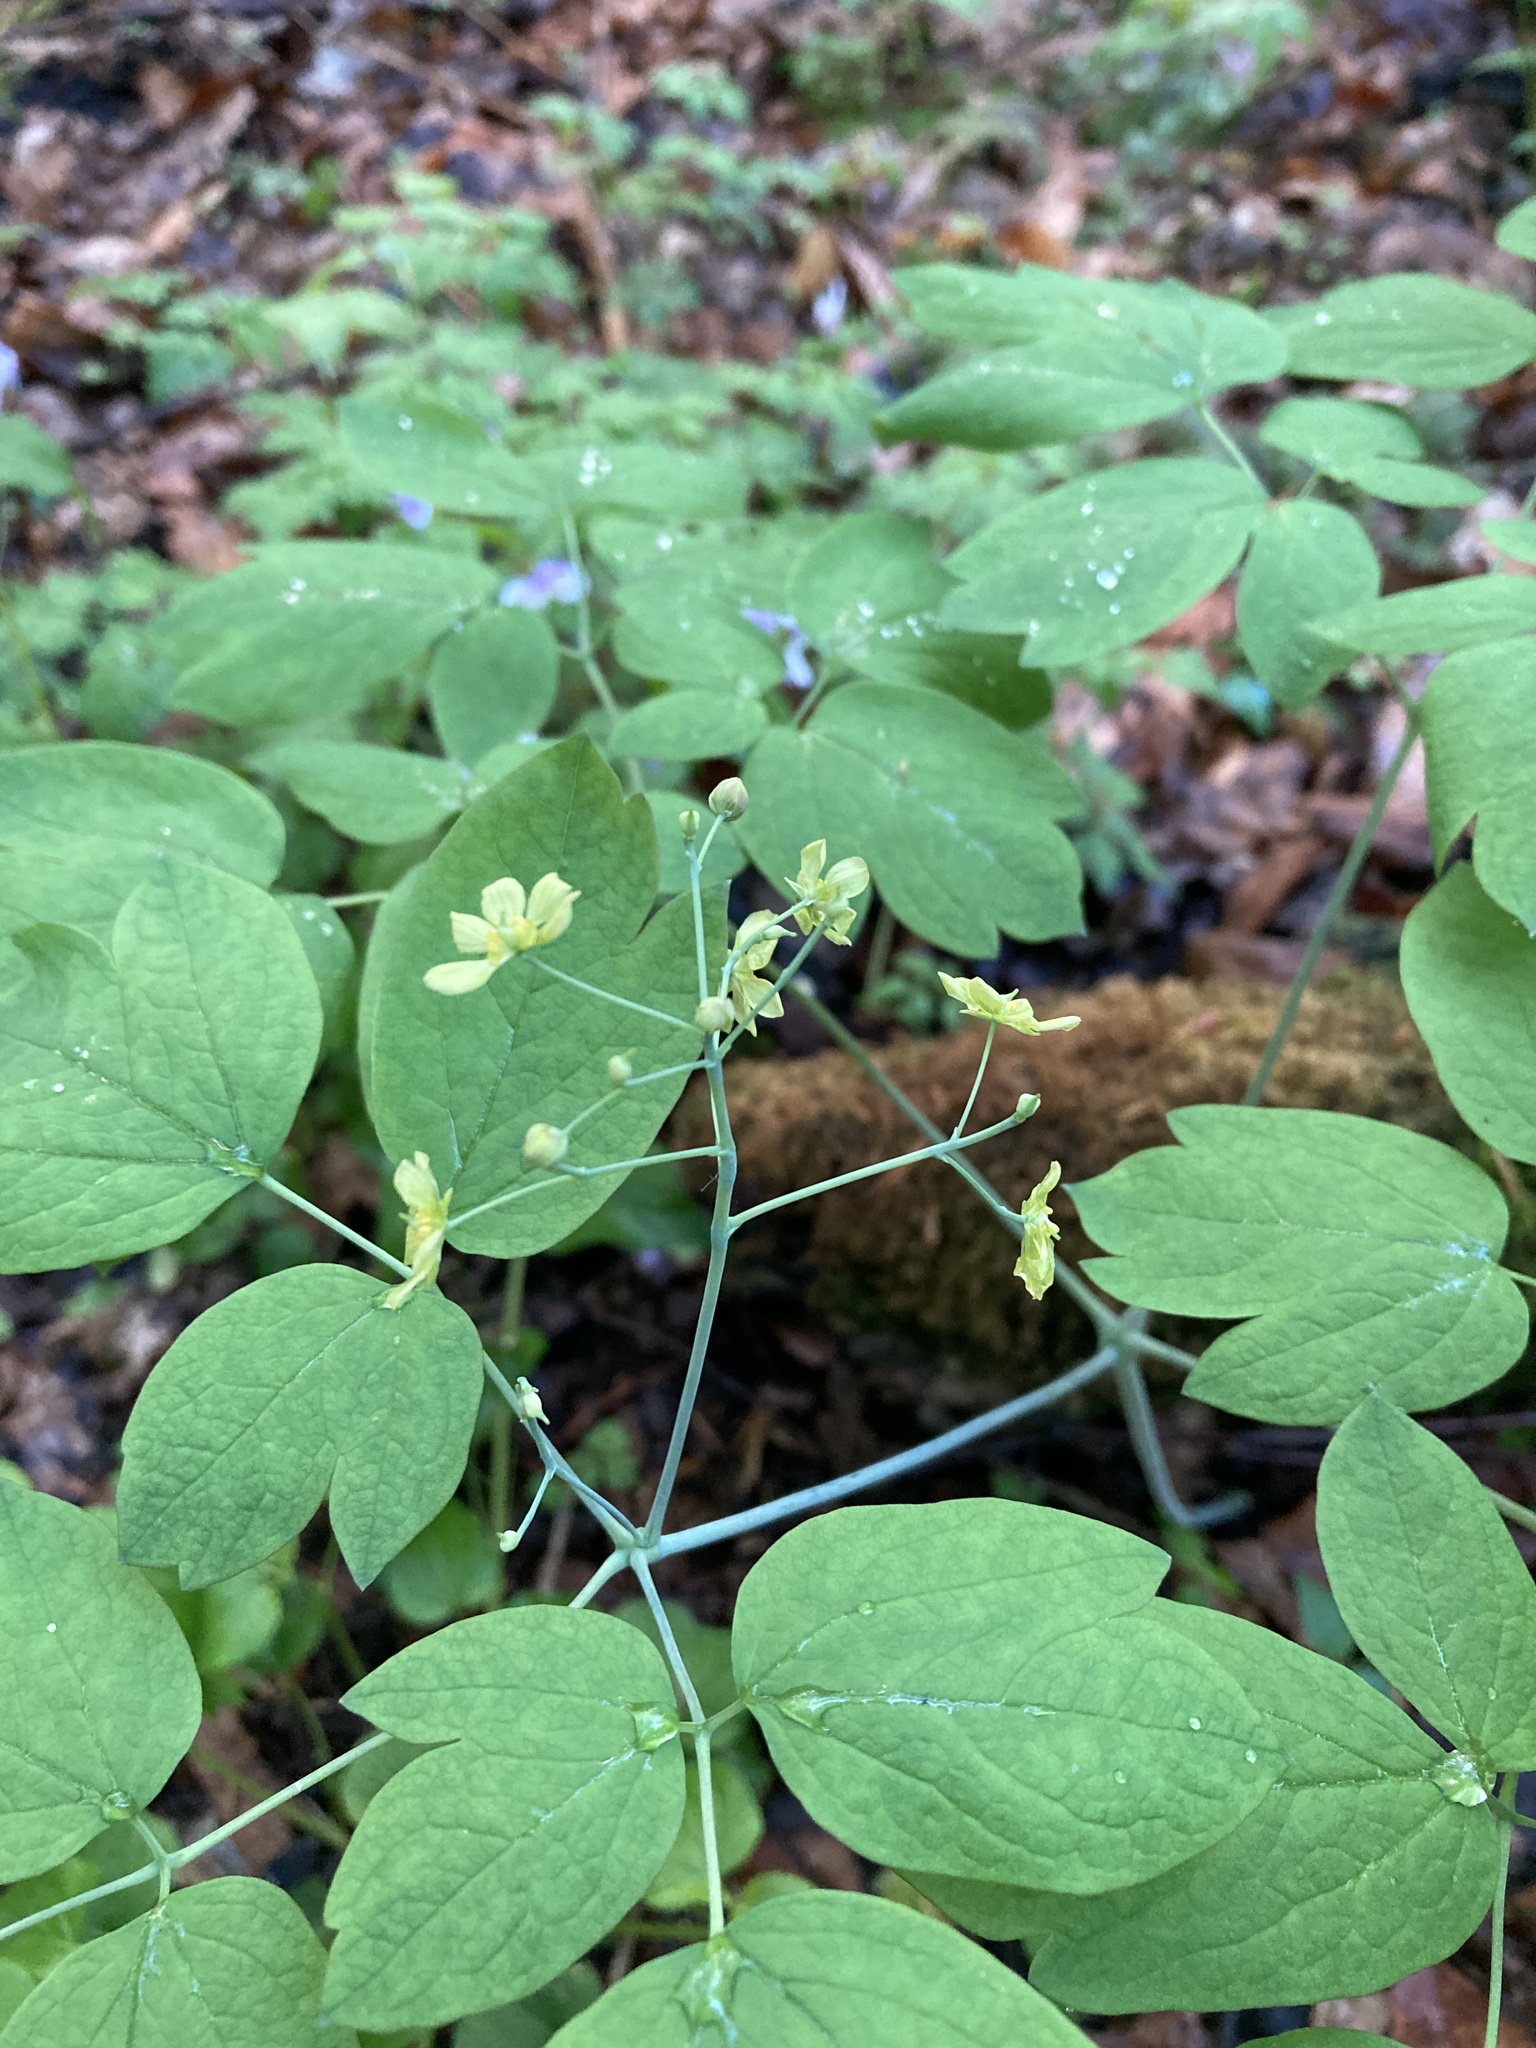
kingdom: Plantae
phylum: Tracheophyta
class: Magnoliopsida
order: Ranunculales
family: Berberidaceae
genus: Caulophyllum
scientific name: Caulophyllum thalictroides
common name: Blue cohosh
